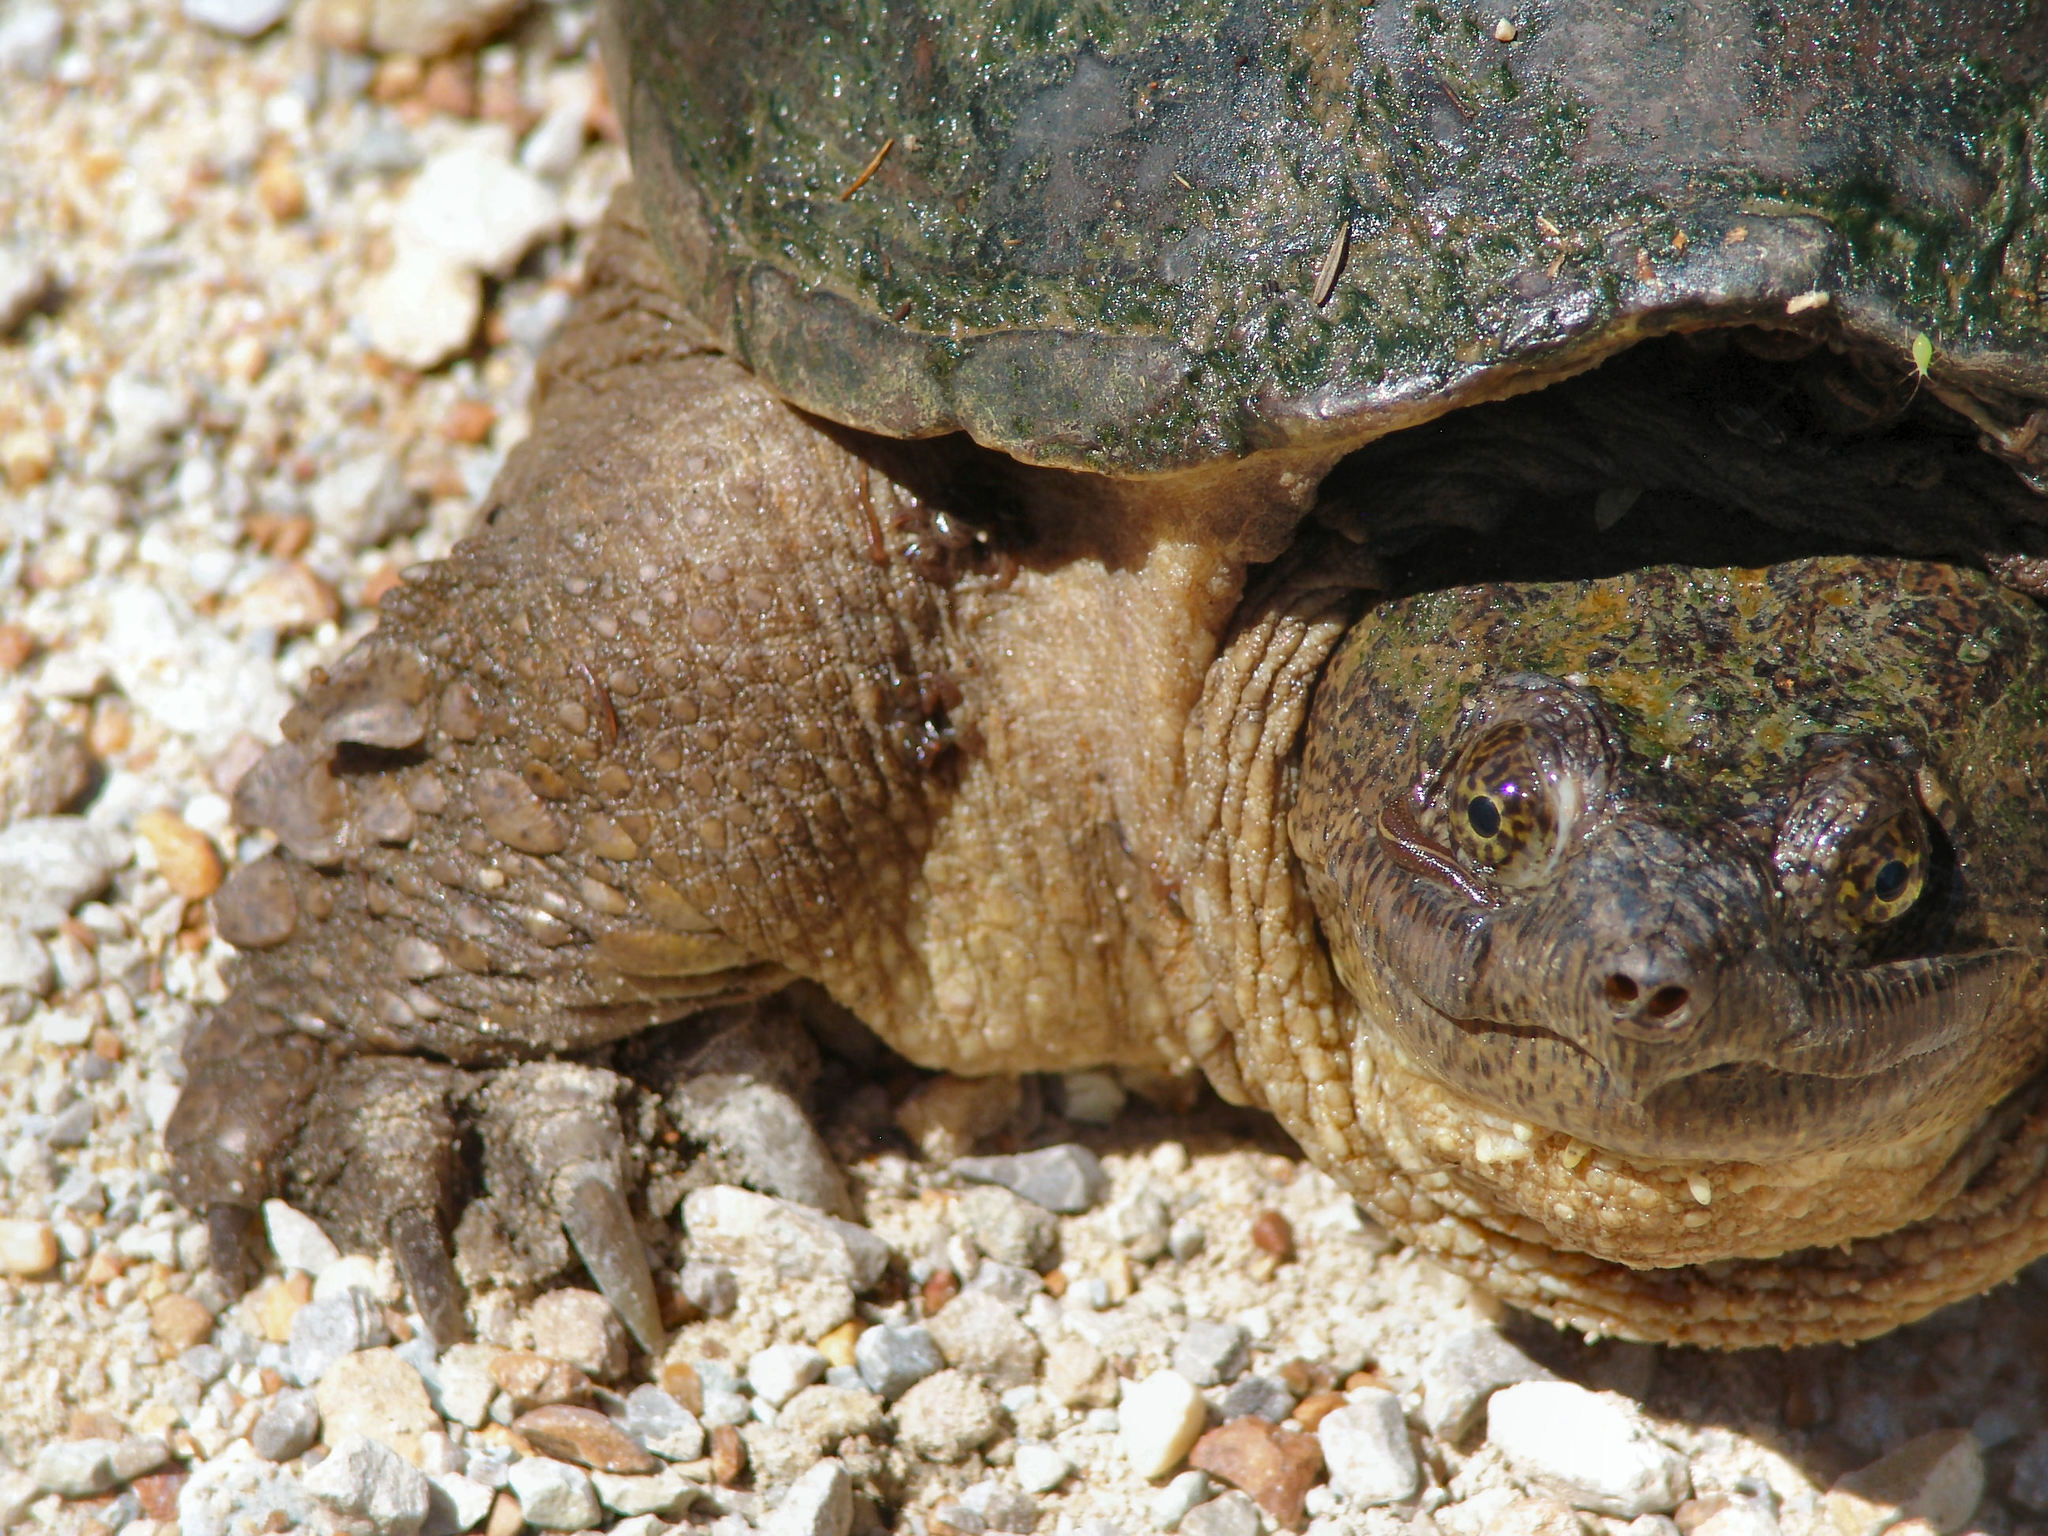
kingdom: Animalia
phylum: Chordata
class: Testudines
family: Chelydridae
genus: Chelydra
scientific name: Chelydra serpentina
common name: Common snapping turtle
